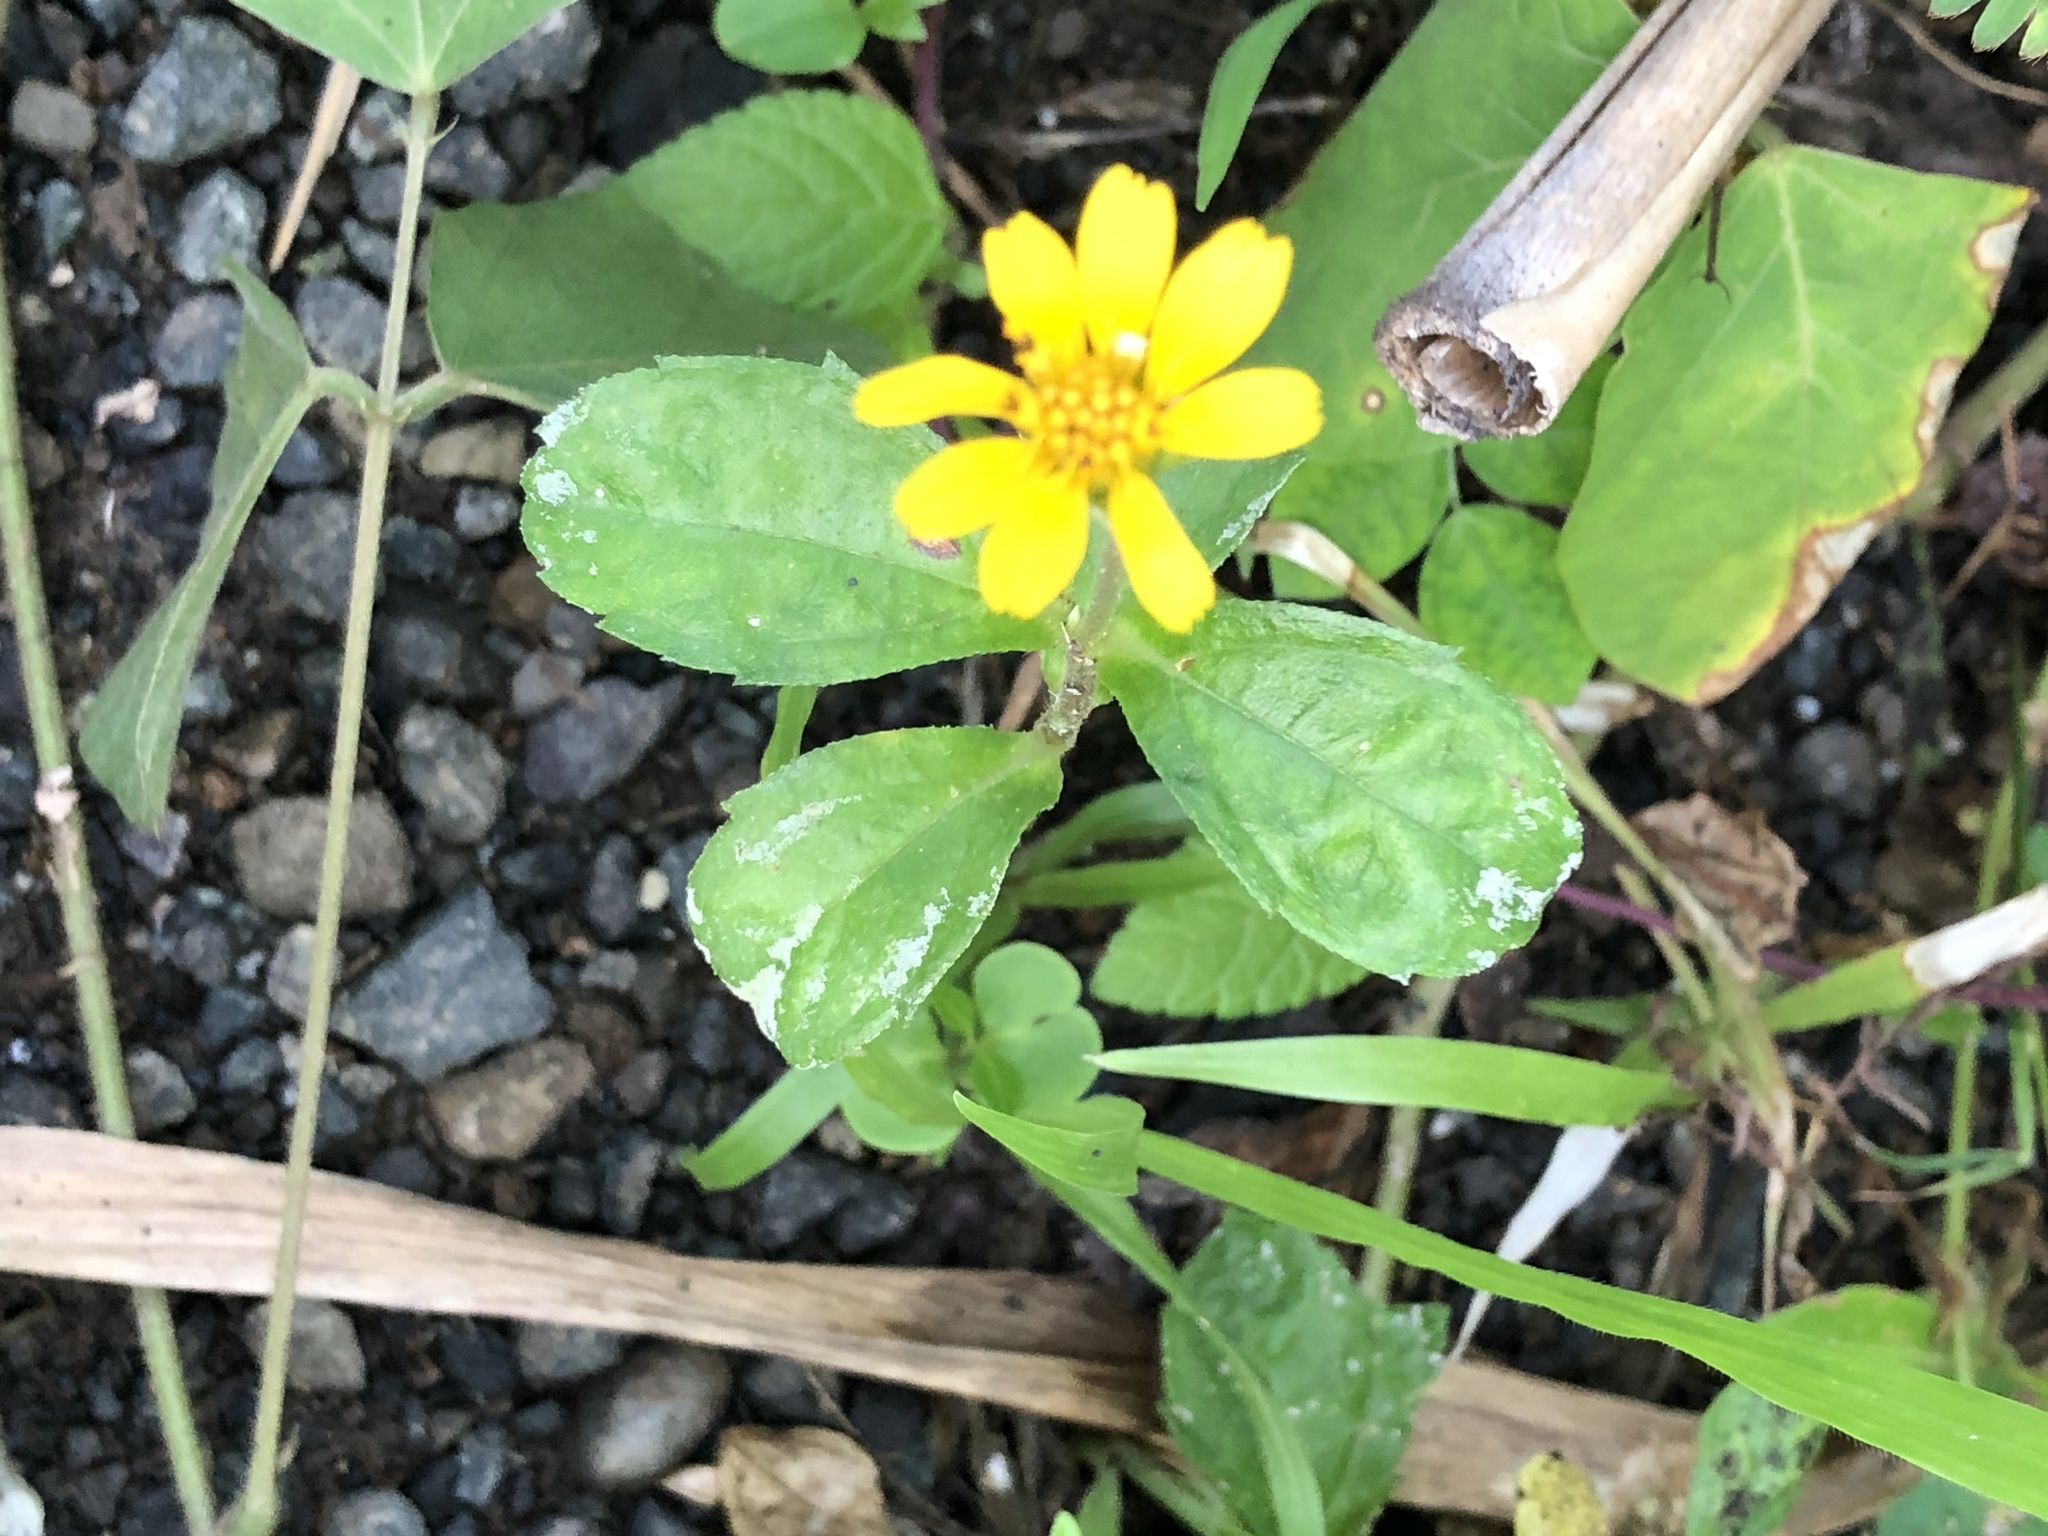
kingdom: Plantae
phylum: Tracheophyta
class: Magnoliopsida
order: Asterales
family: Asteraceae
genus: Sphagneticola
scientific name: Sphagneticola trilobata
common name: Bay biscayne creeping-oxeye
